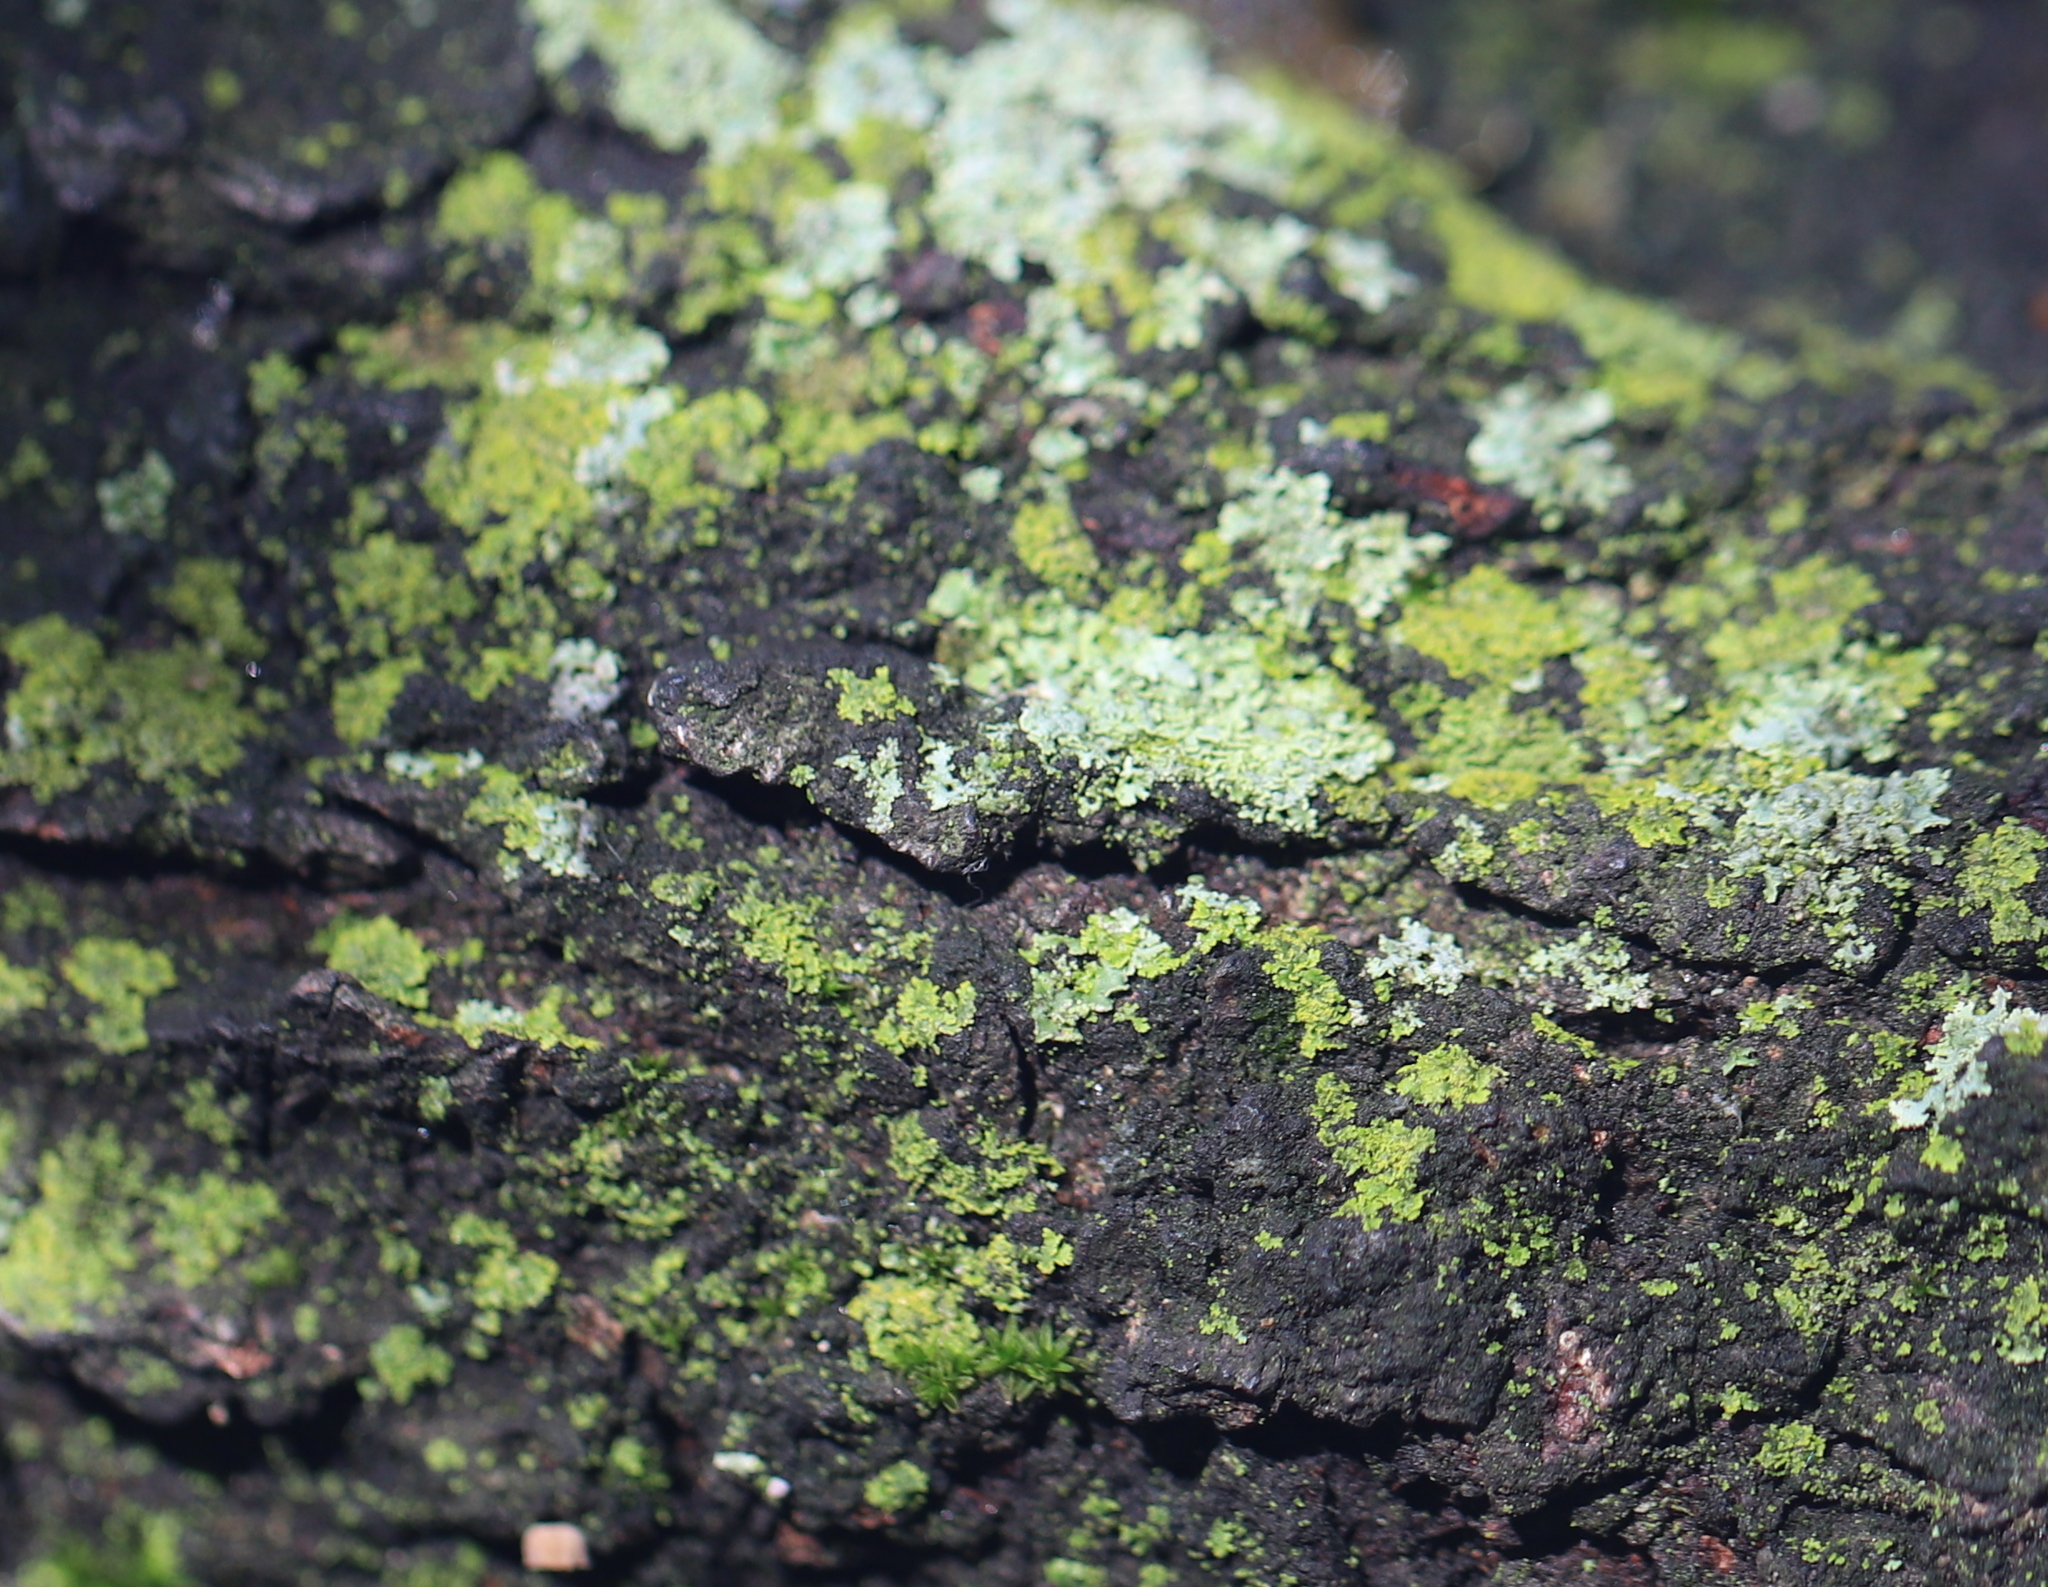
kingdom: Fungi
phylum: Ascomycota
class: Candelariomycetes
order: Candelariales
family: Candelariaceae
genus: Candelaria
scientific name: Candelaria concolor
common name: Candleflame lichen
